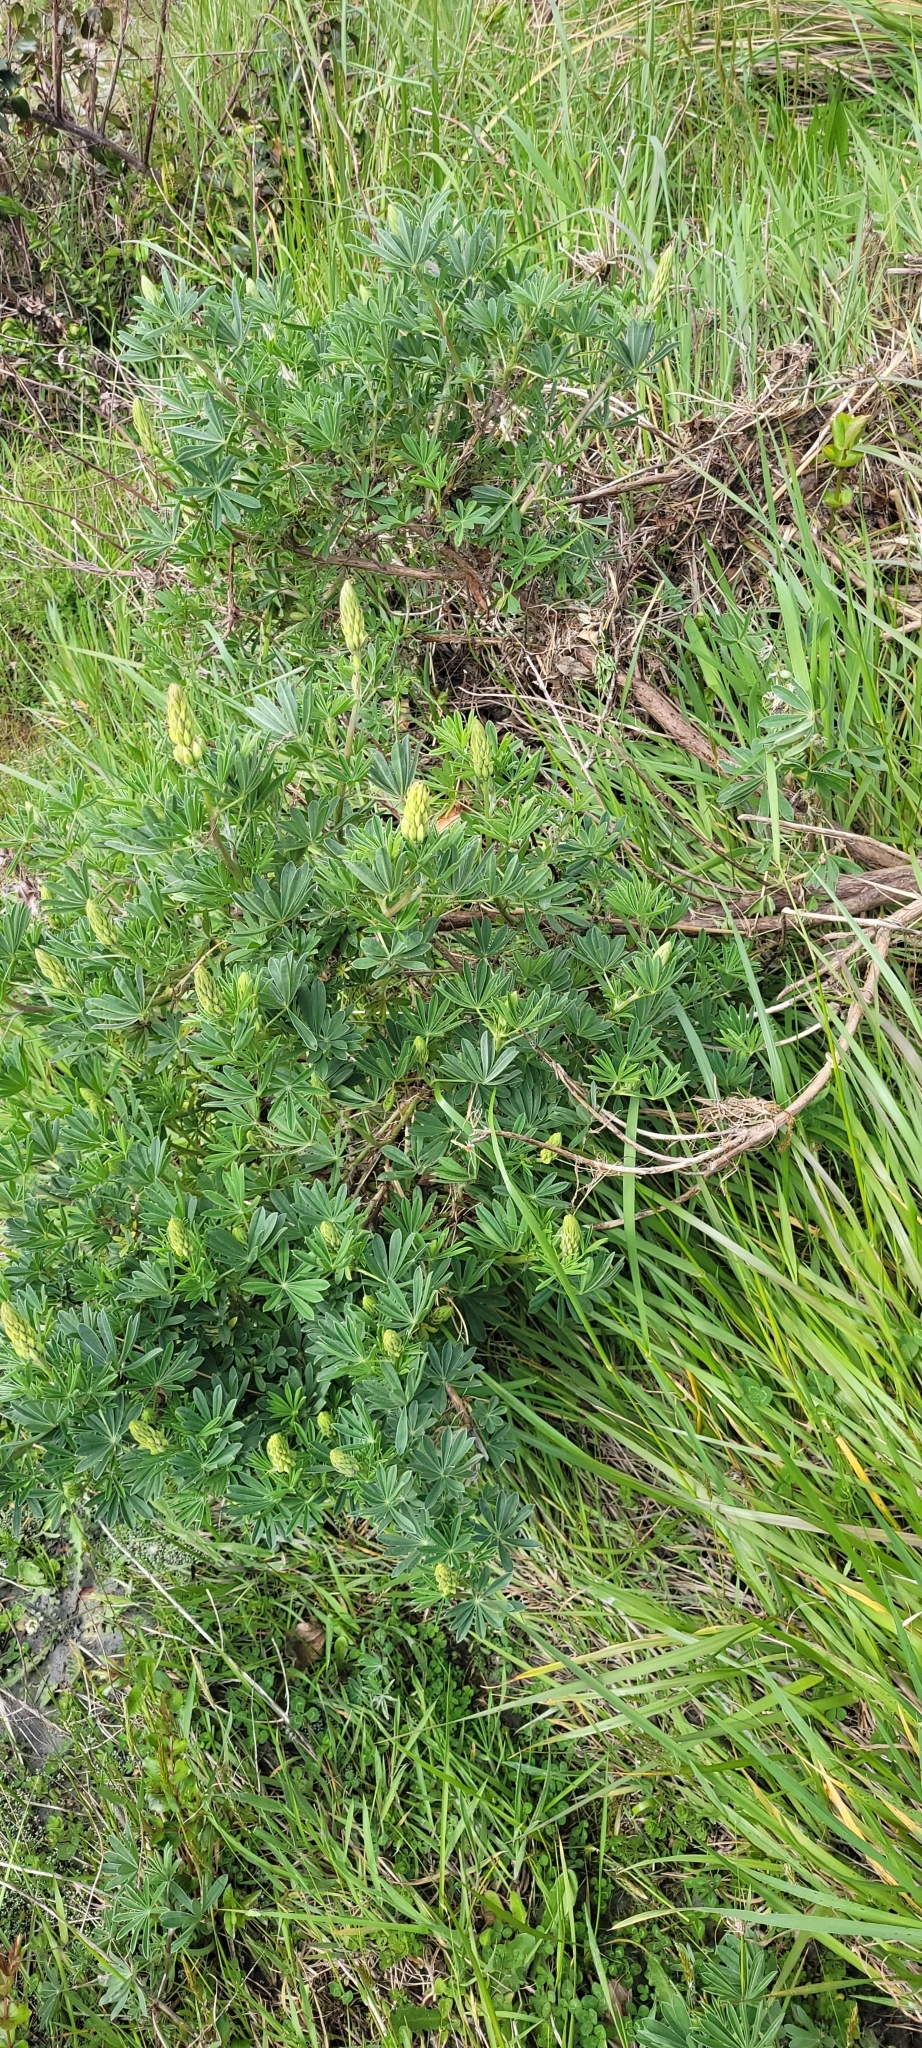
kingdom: Plantae
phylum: Tracheophyta
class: Magnoliopsida
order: Fabales
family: Fabaceae
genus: Lupinus
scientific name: Lupinus arboreus
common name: Yellow bush lupine
